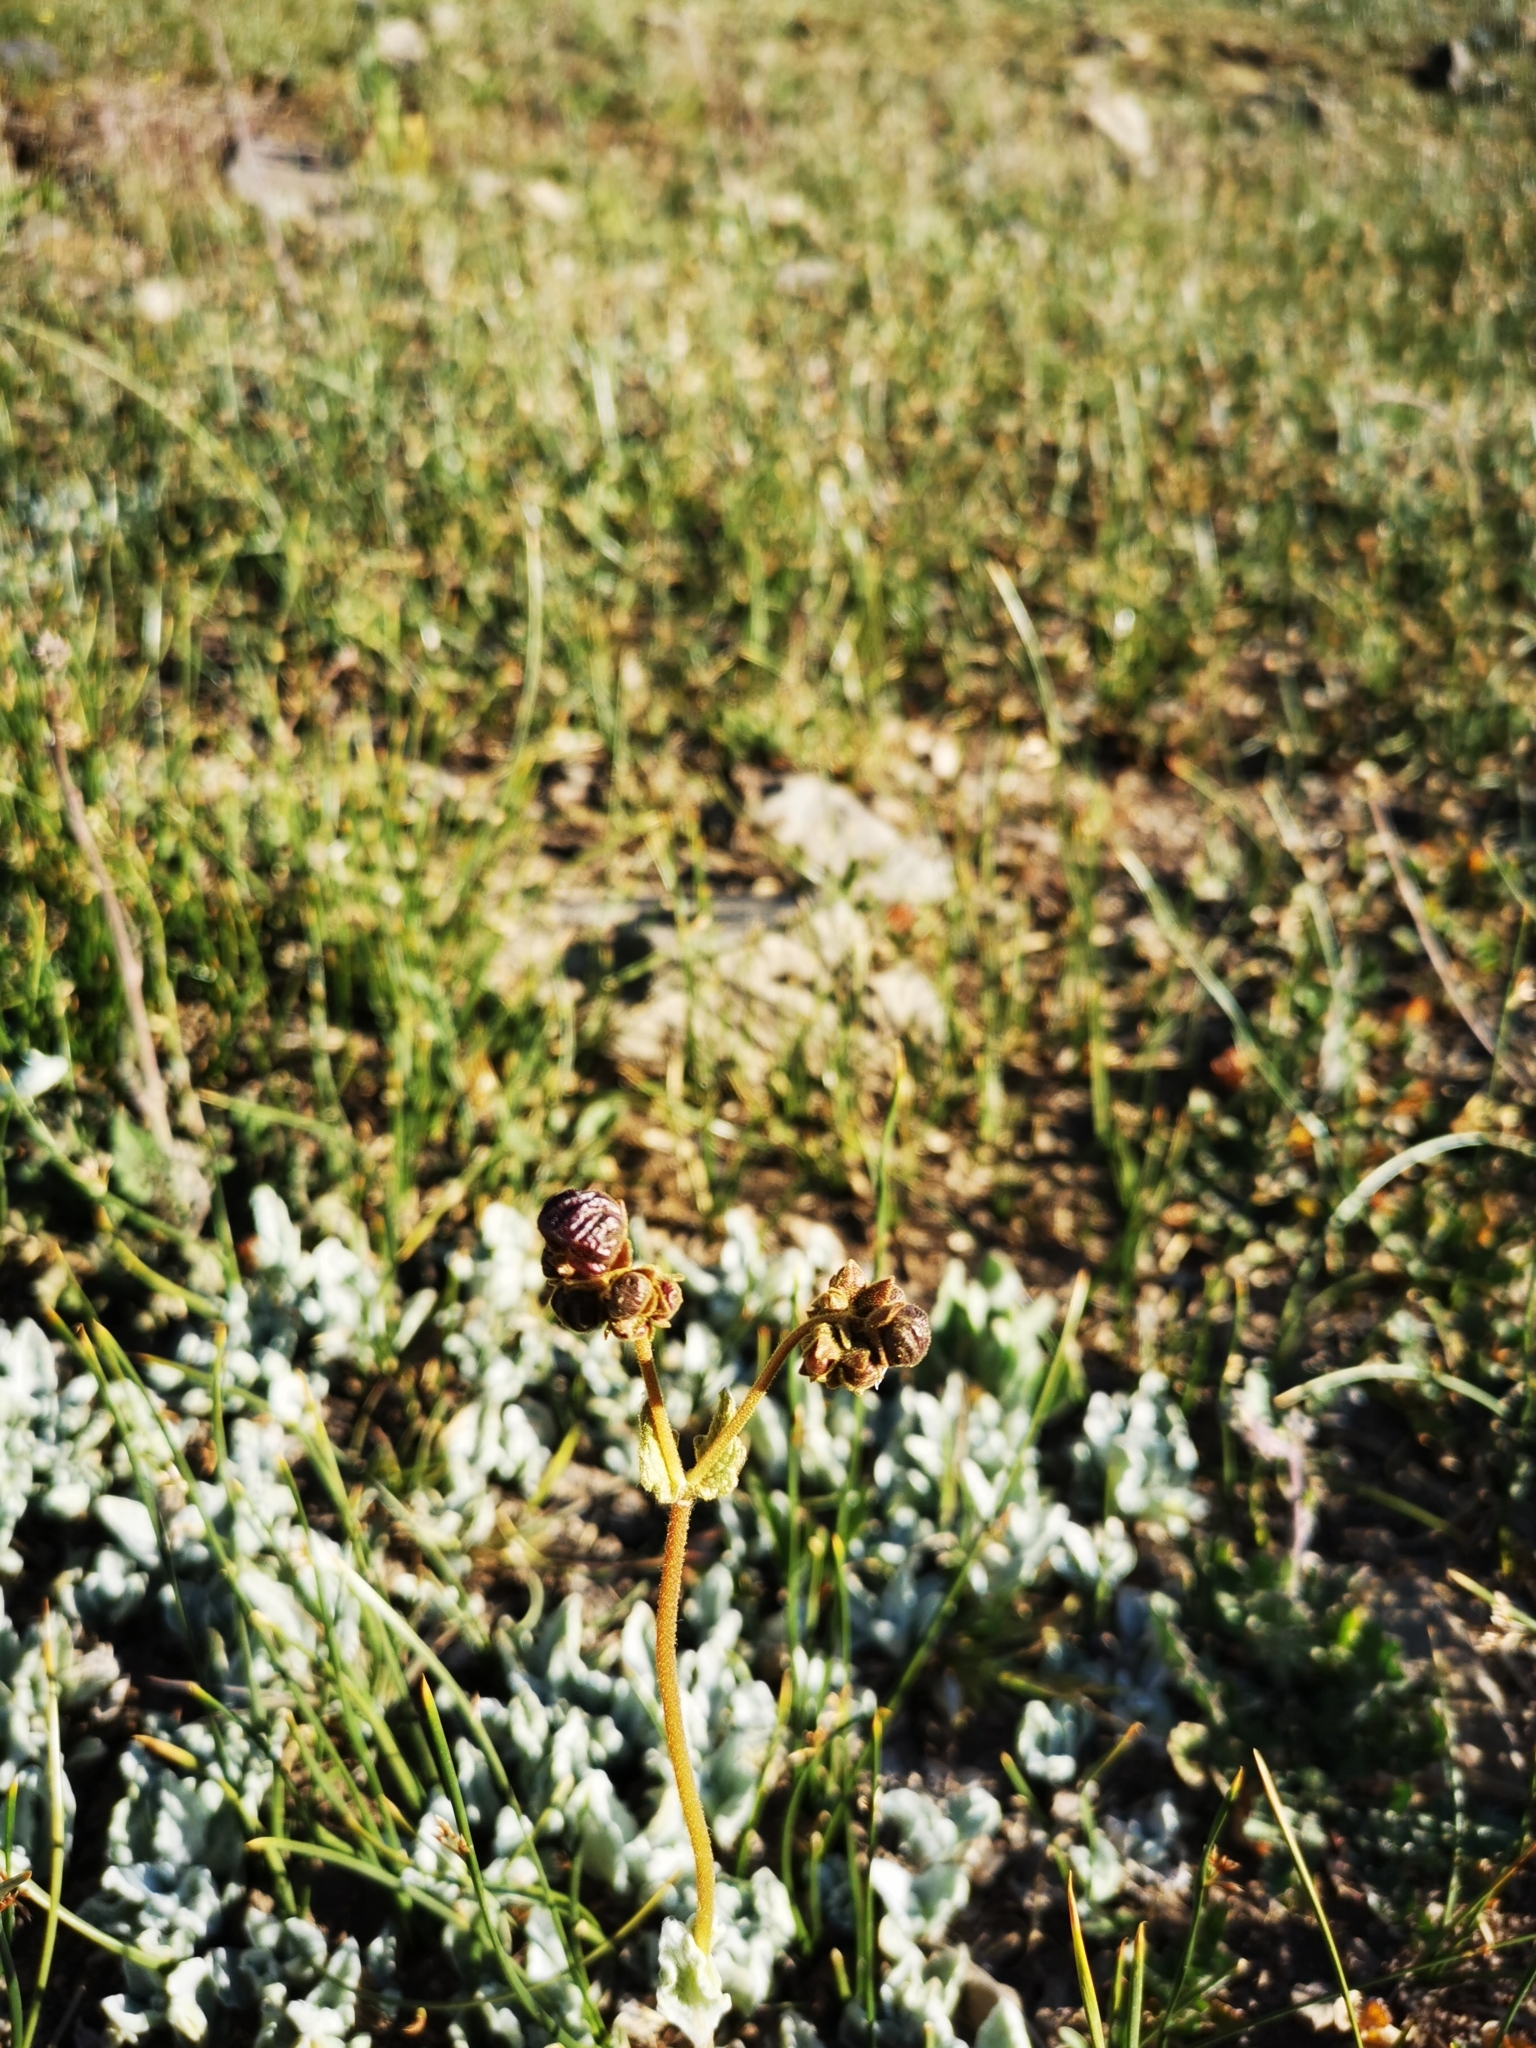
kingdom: Plantae
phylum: Tracheophyta
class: Magnoliopsida
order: Lamiales
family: Calceolariaceae
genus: Calceolaria
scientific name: Calceolaria arachnoidea
